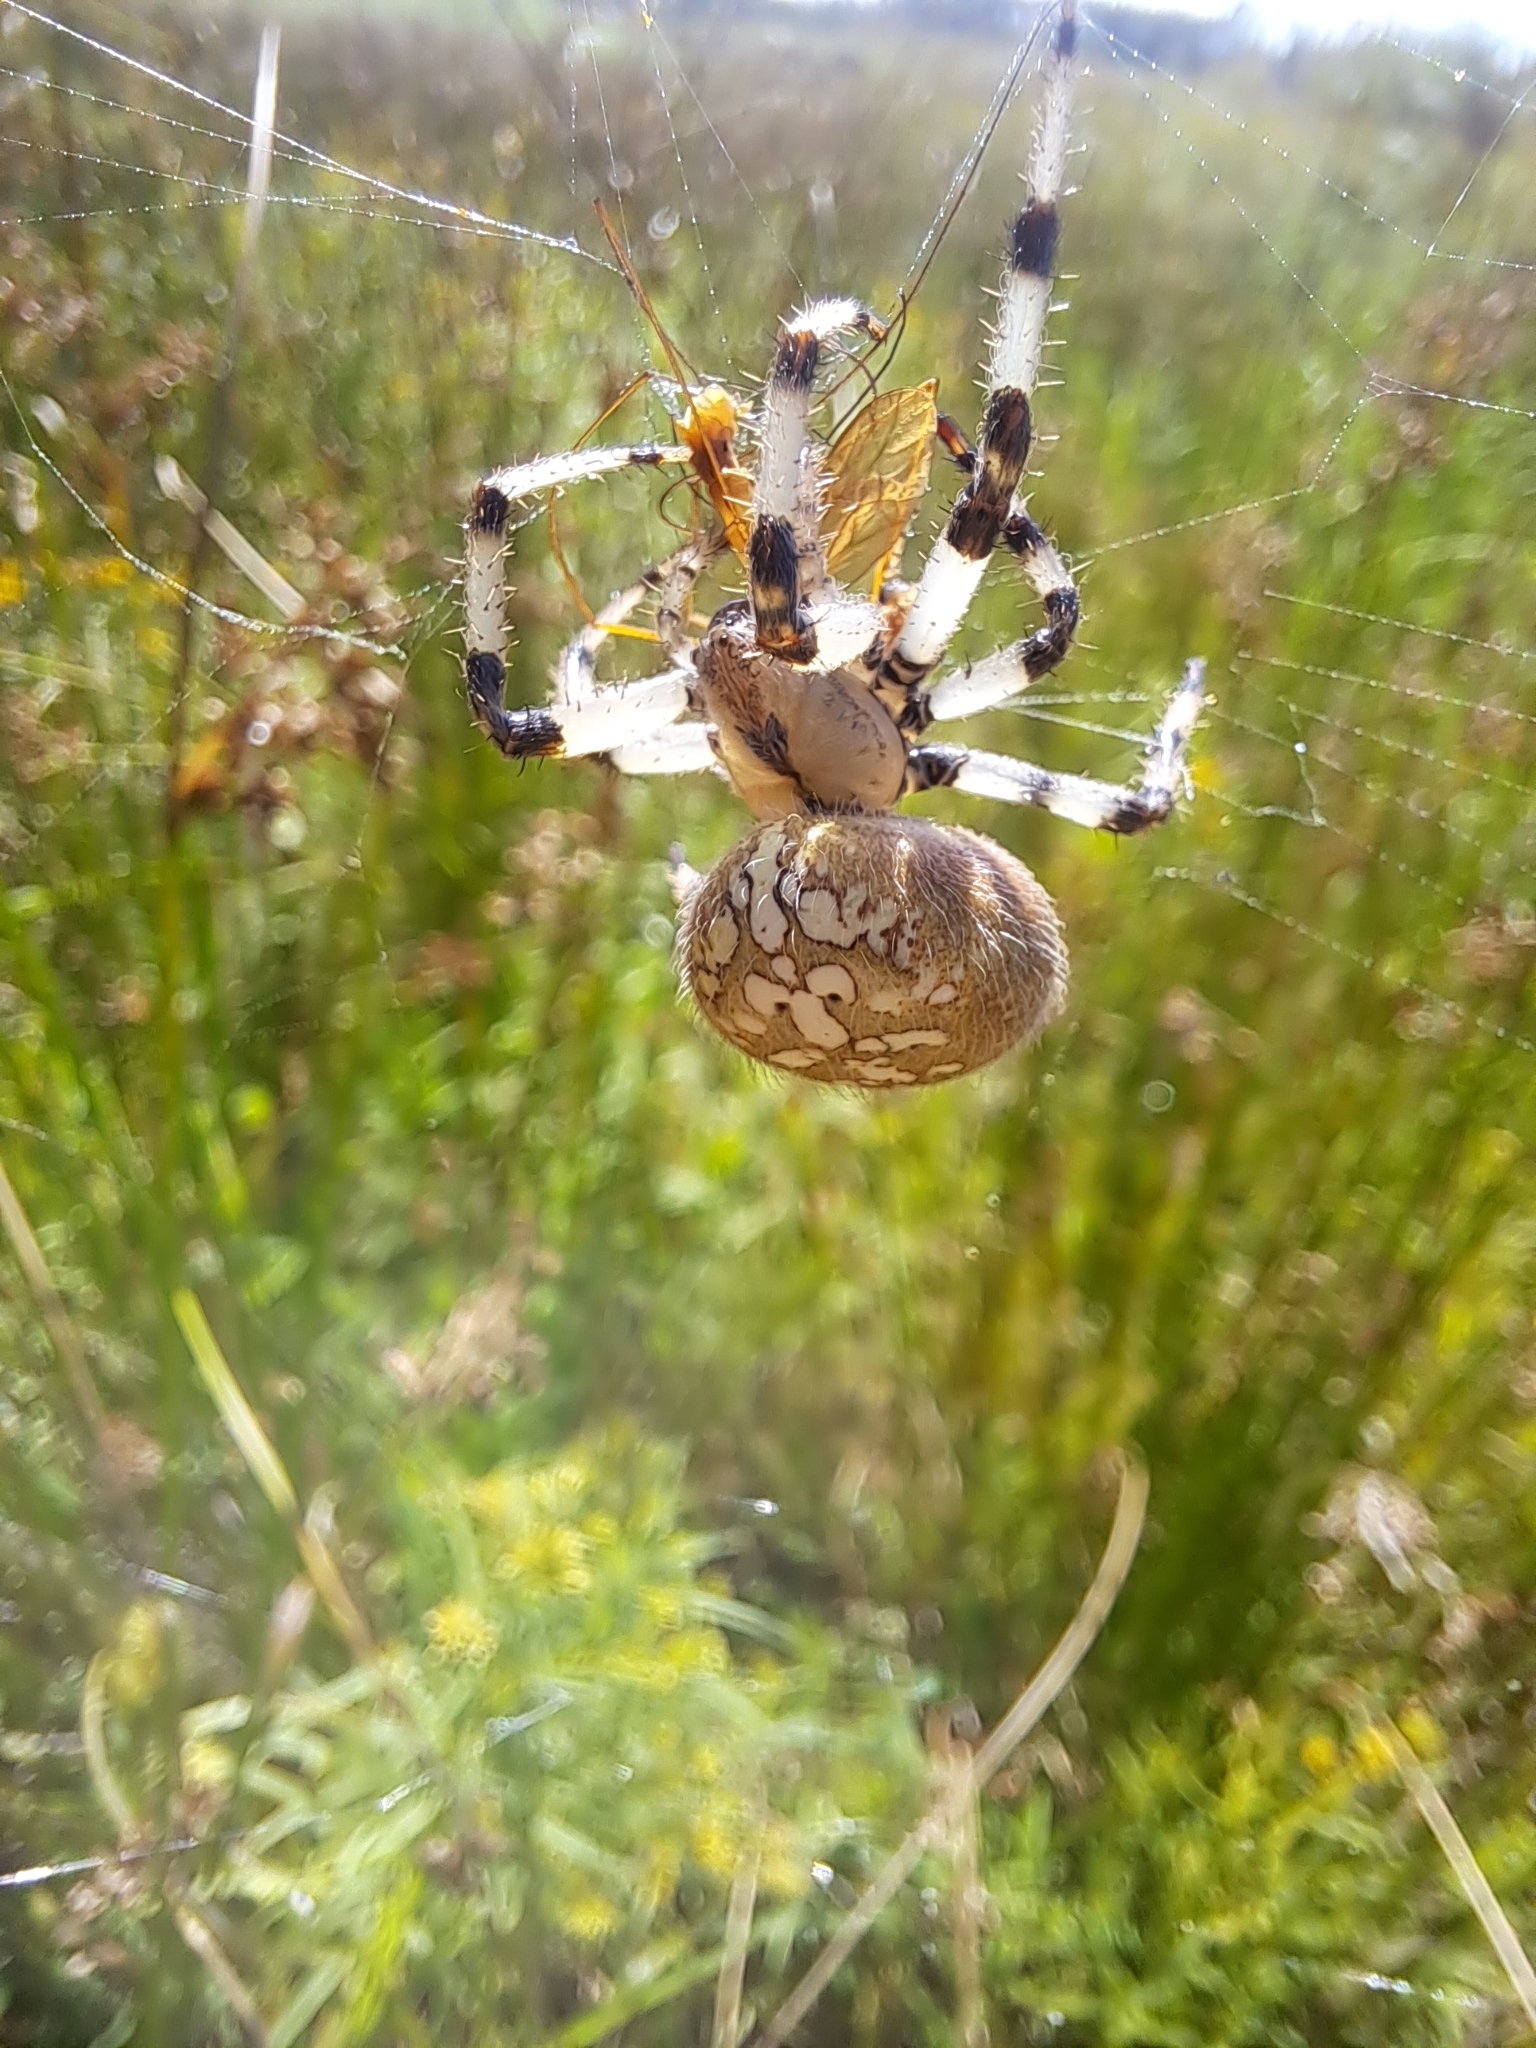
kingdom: Animalia
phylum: Arthropoda
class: Arachnida
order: Araneae
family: Araneidae
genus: Araneus
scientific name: Araneus trifolium
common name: Shamrock orbweaver
